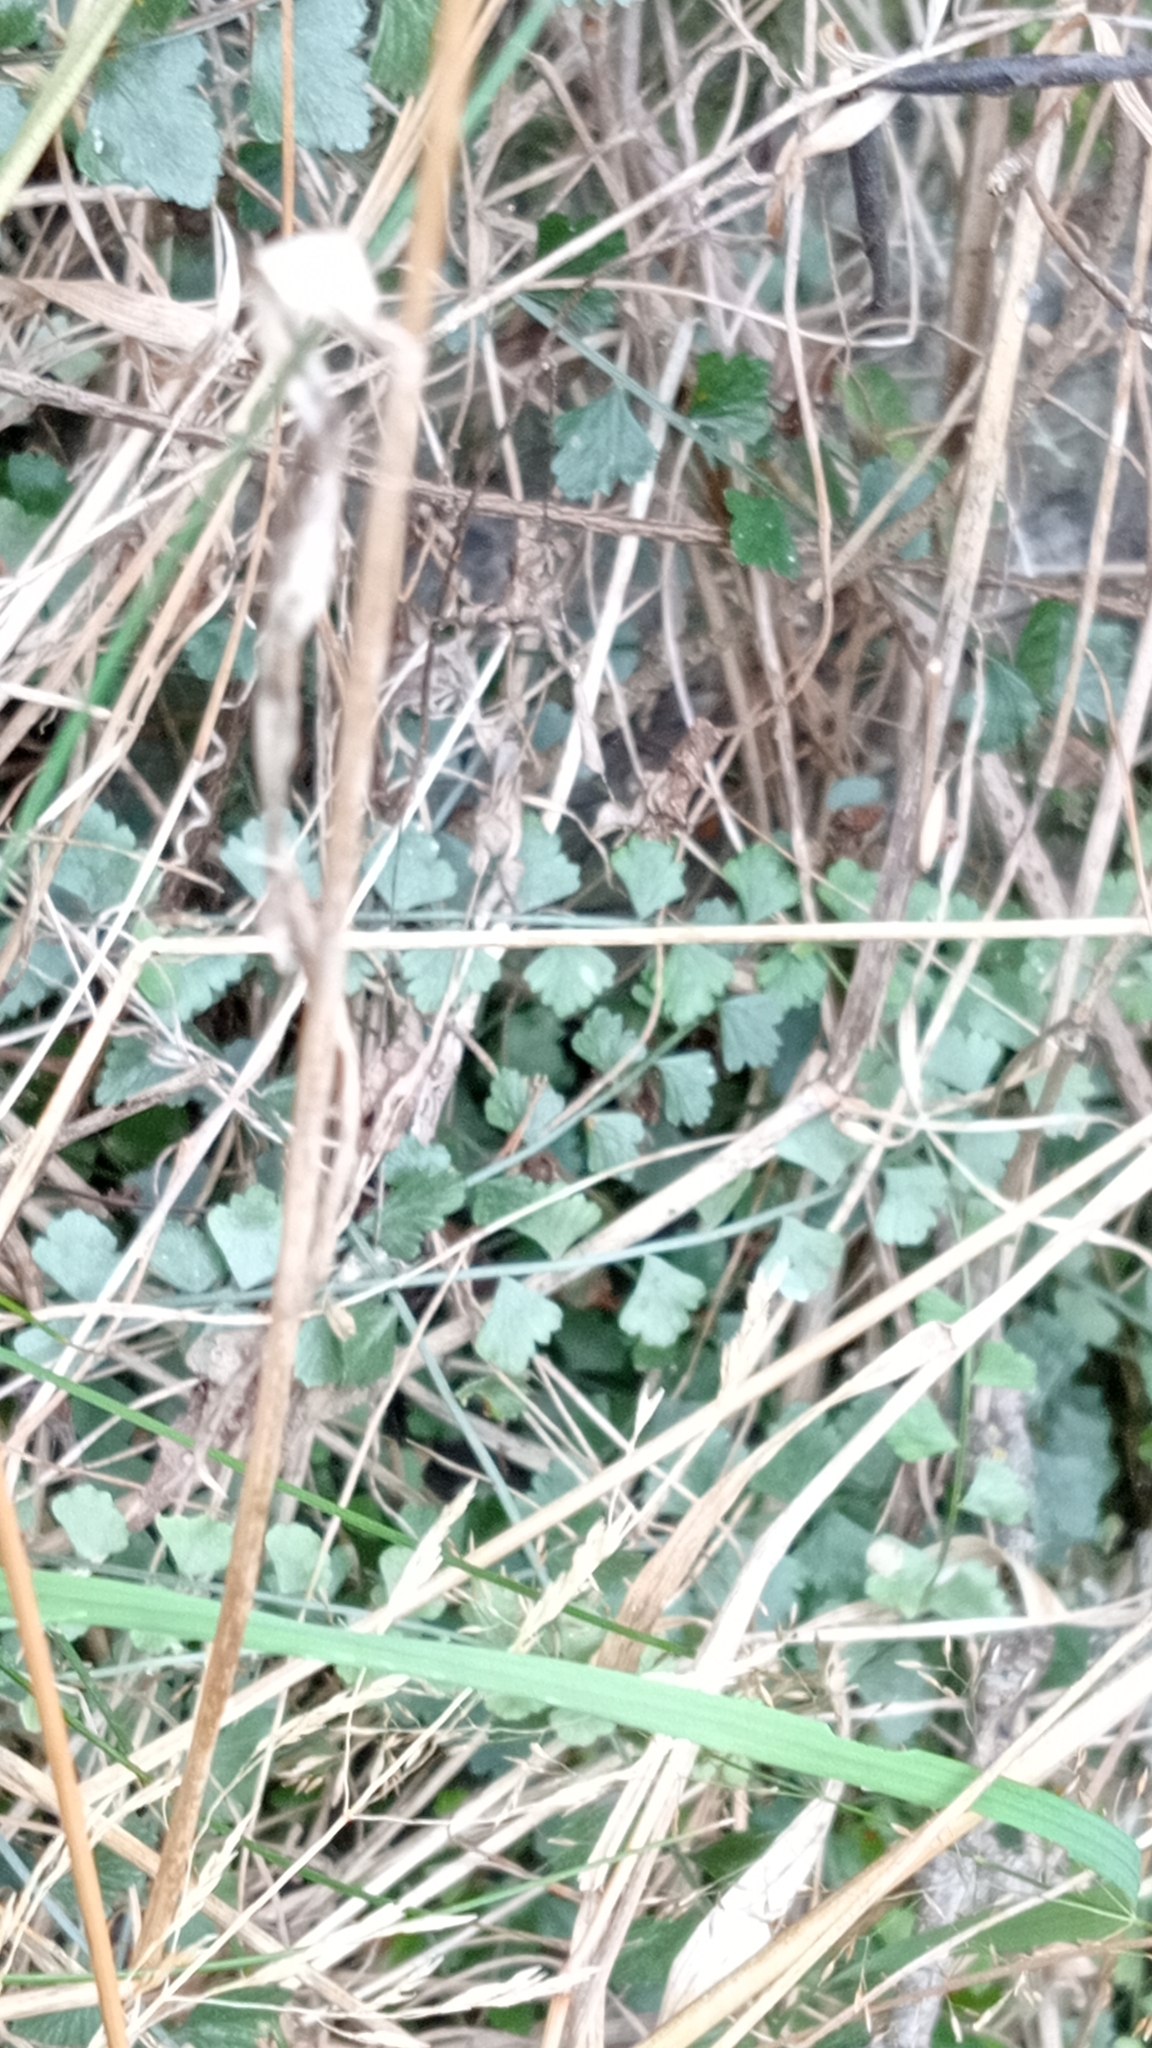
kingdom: Plantae
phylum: Tracheophyta
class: Polypodiopsida
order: Polypodiales
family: Aspleniaceae
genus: Asplenium
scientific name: Asplenium flabellifolium
